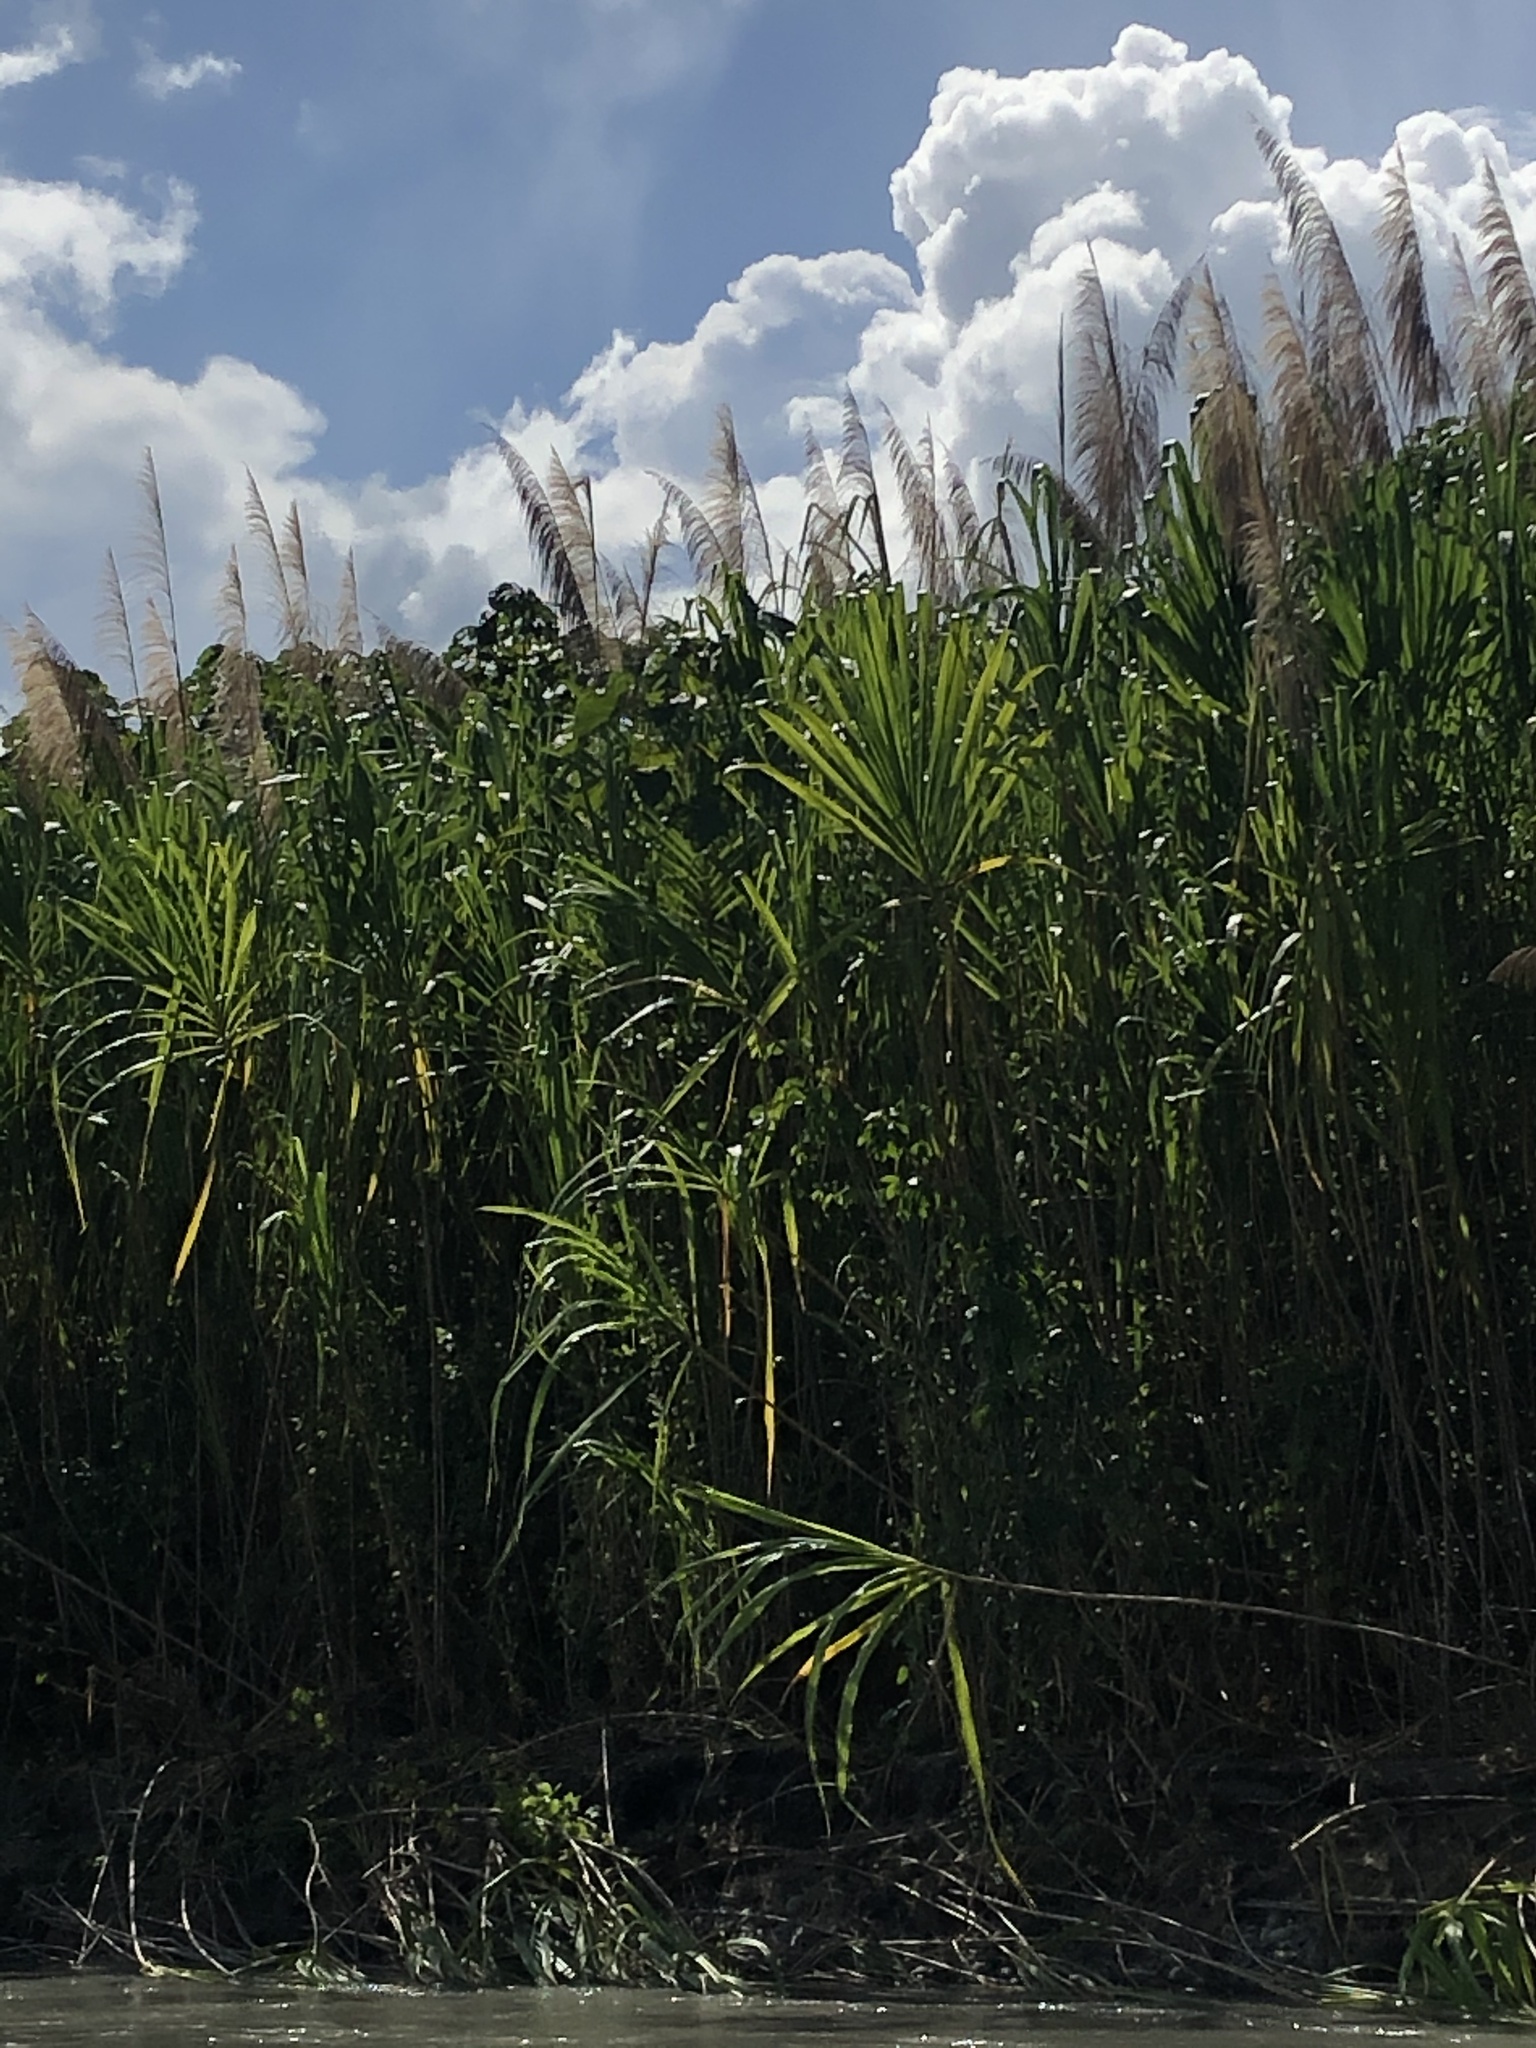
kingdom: Plantae
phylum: Tracheophyta
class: Liliopsida
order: Poales
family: Poaceae
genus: Gynerium
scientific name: Gynerium sagittatum
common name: Wild cane
